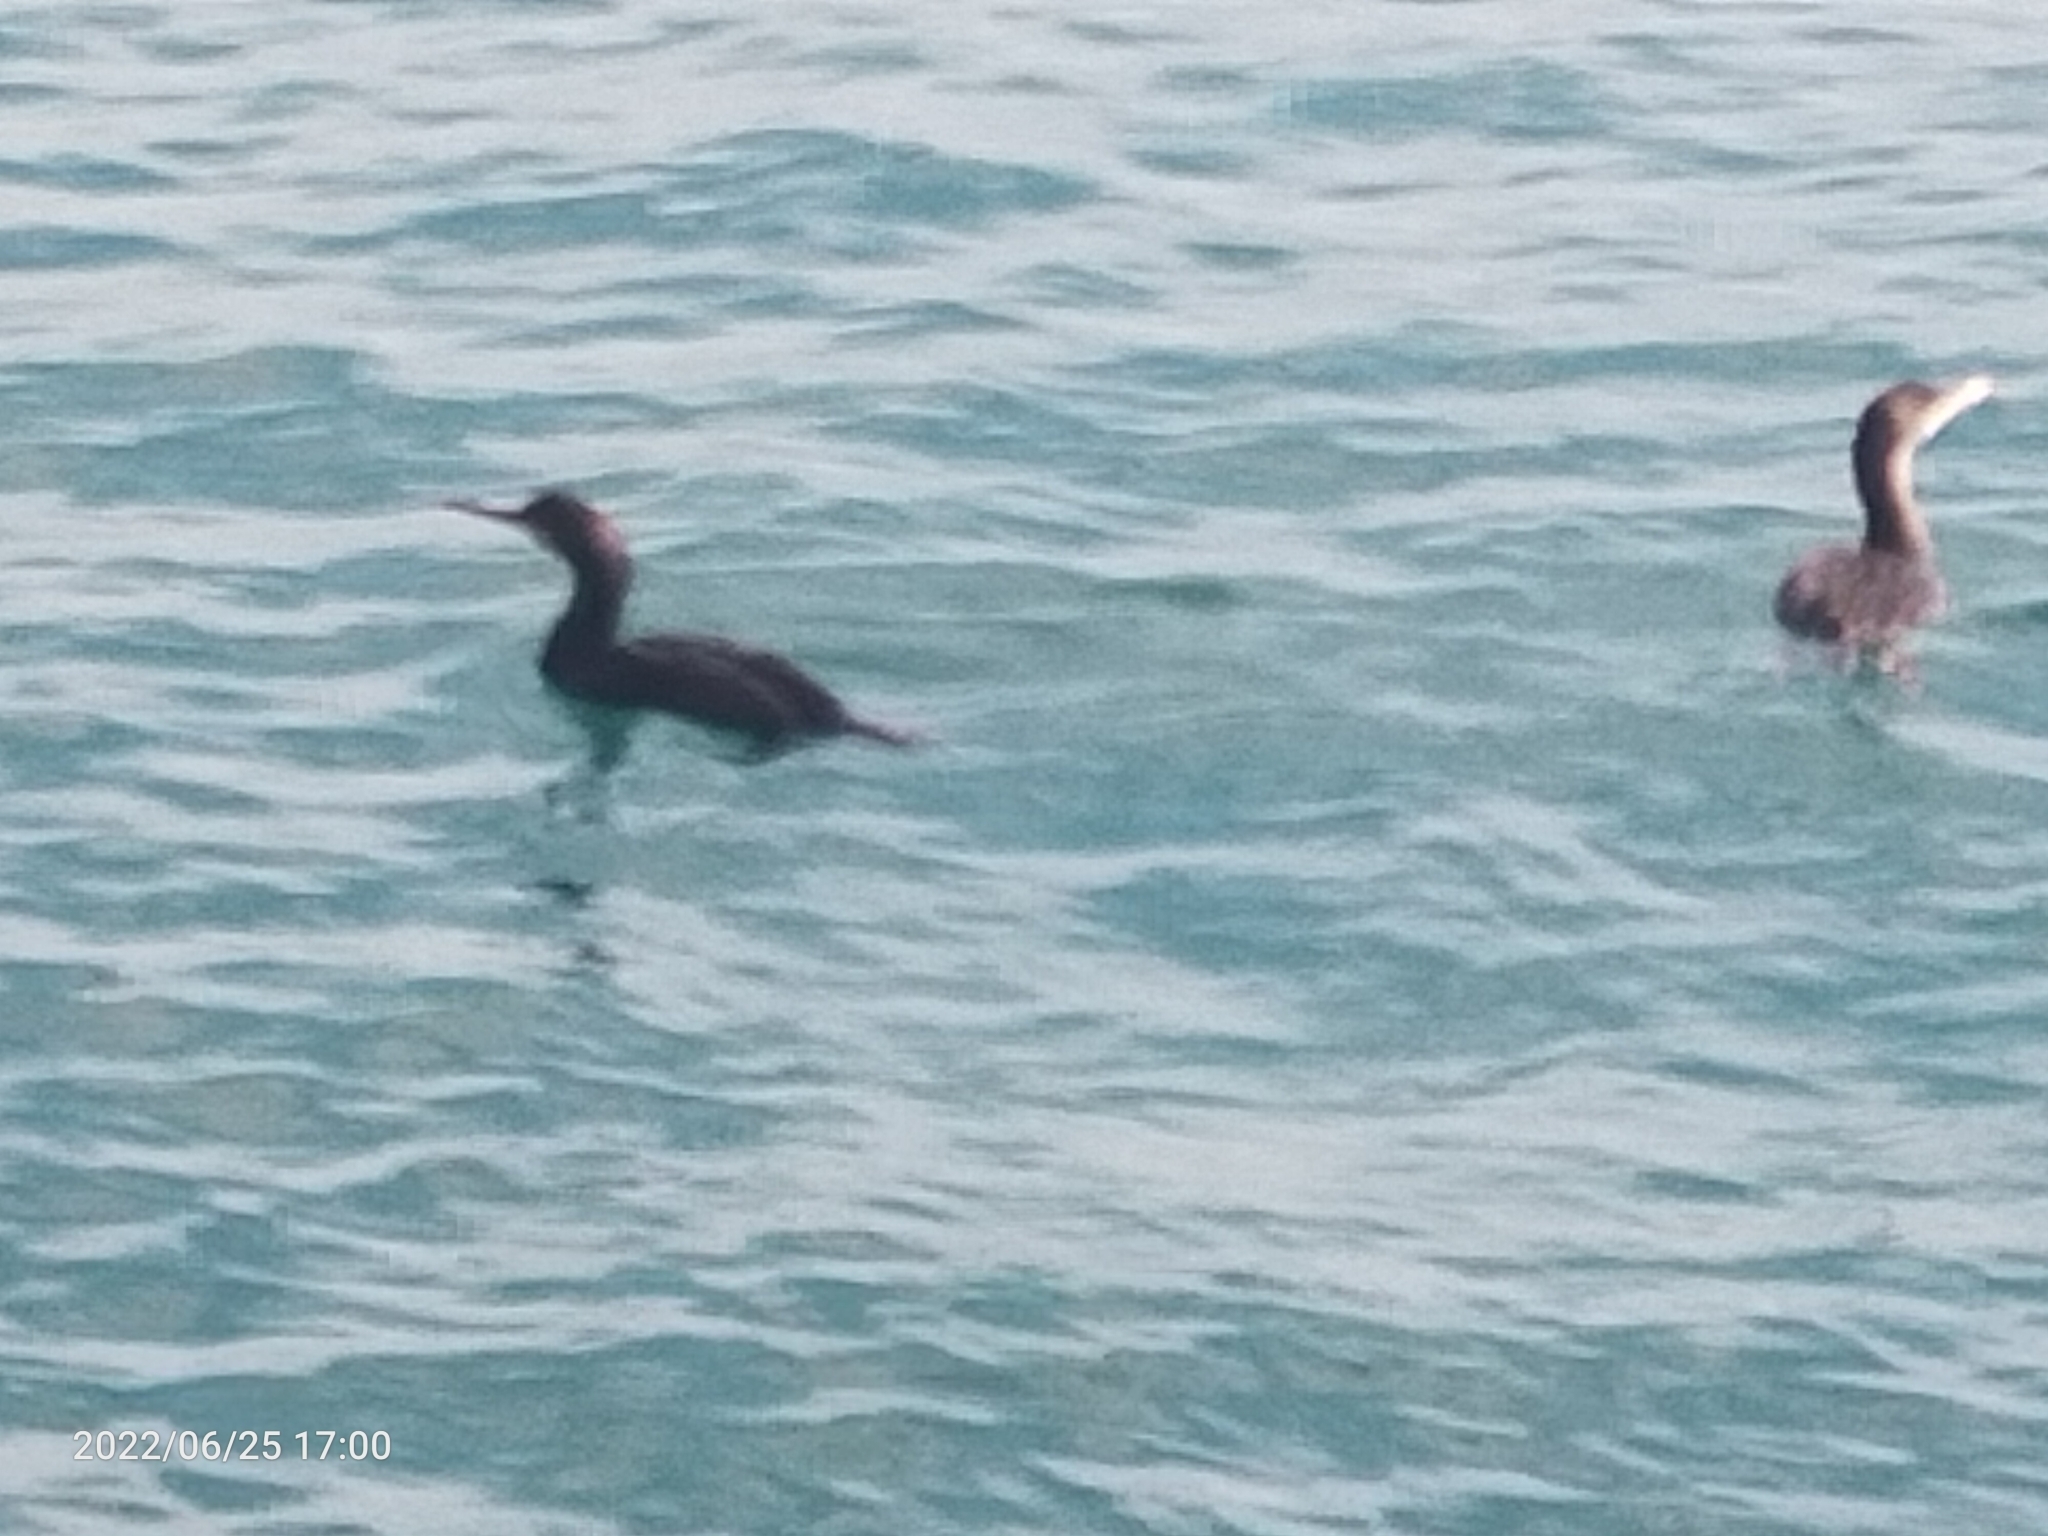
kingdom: Animalia
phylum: Chordata
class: Aves
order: Suliformes
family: Phalacrocoracidae
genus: Phalacrocorax
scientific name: Phalacrocorax aristotelis
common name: European shag
